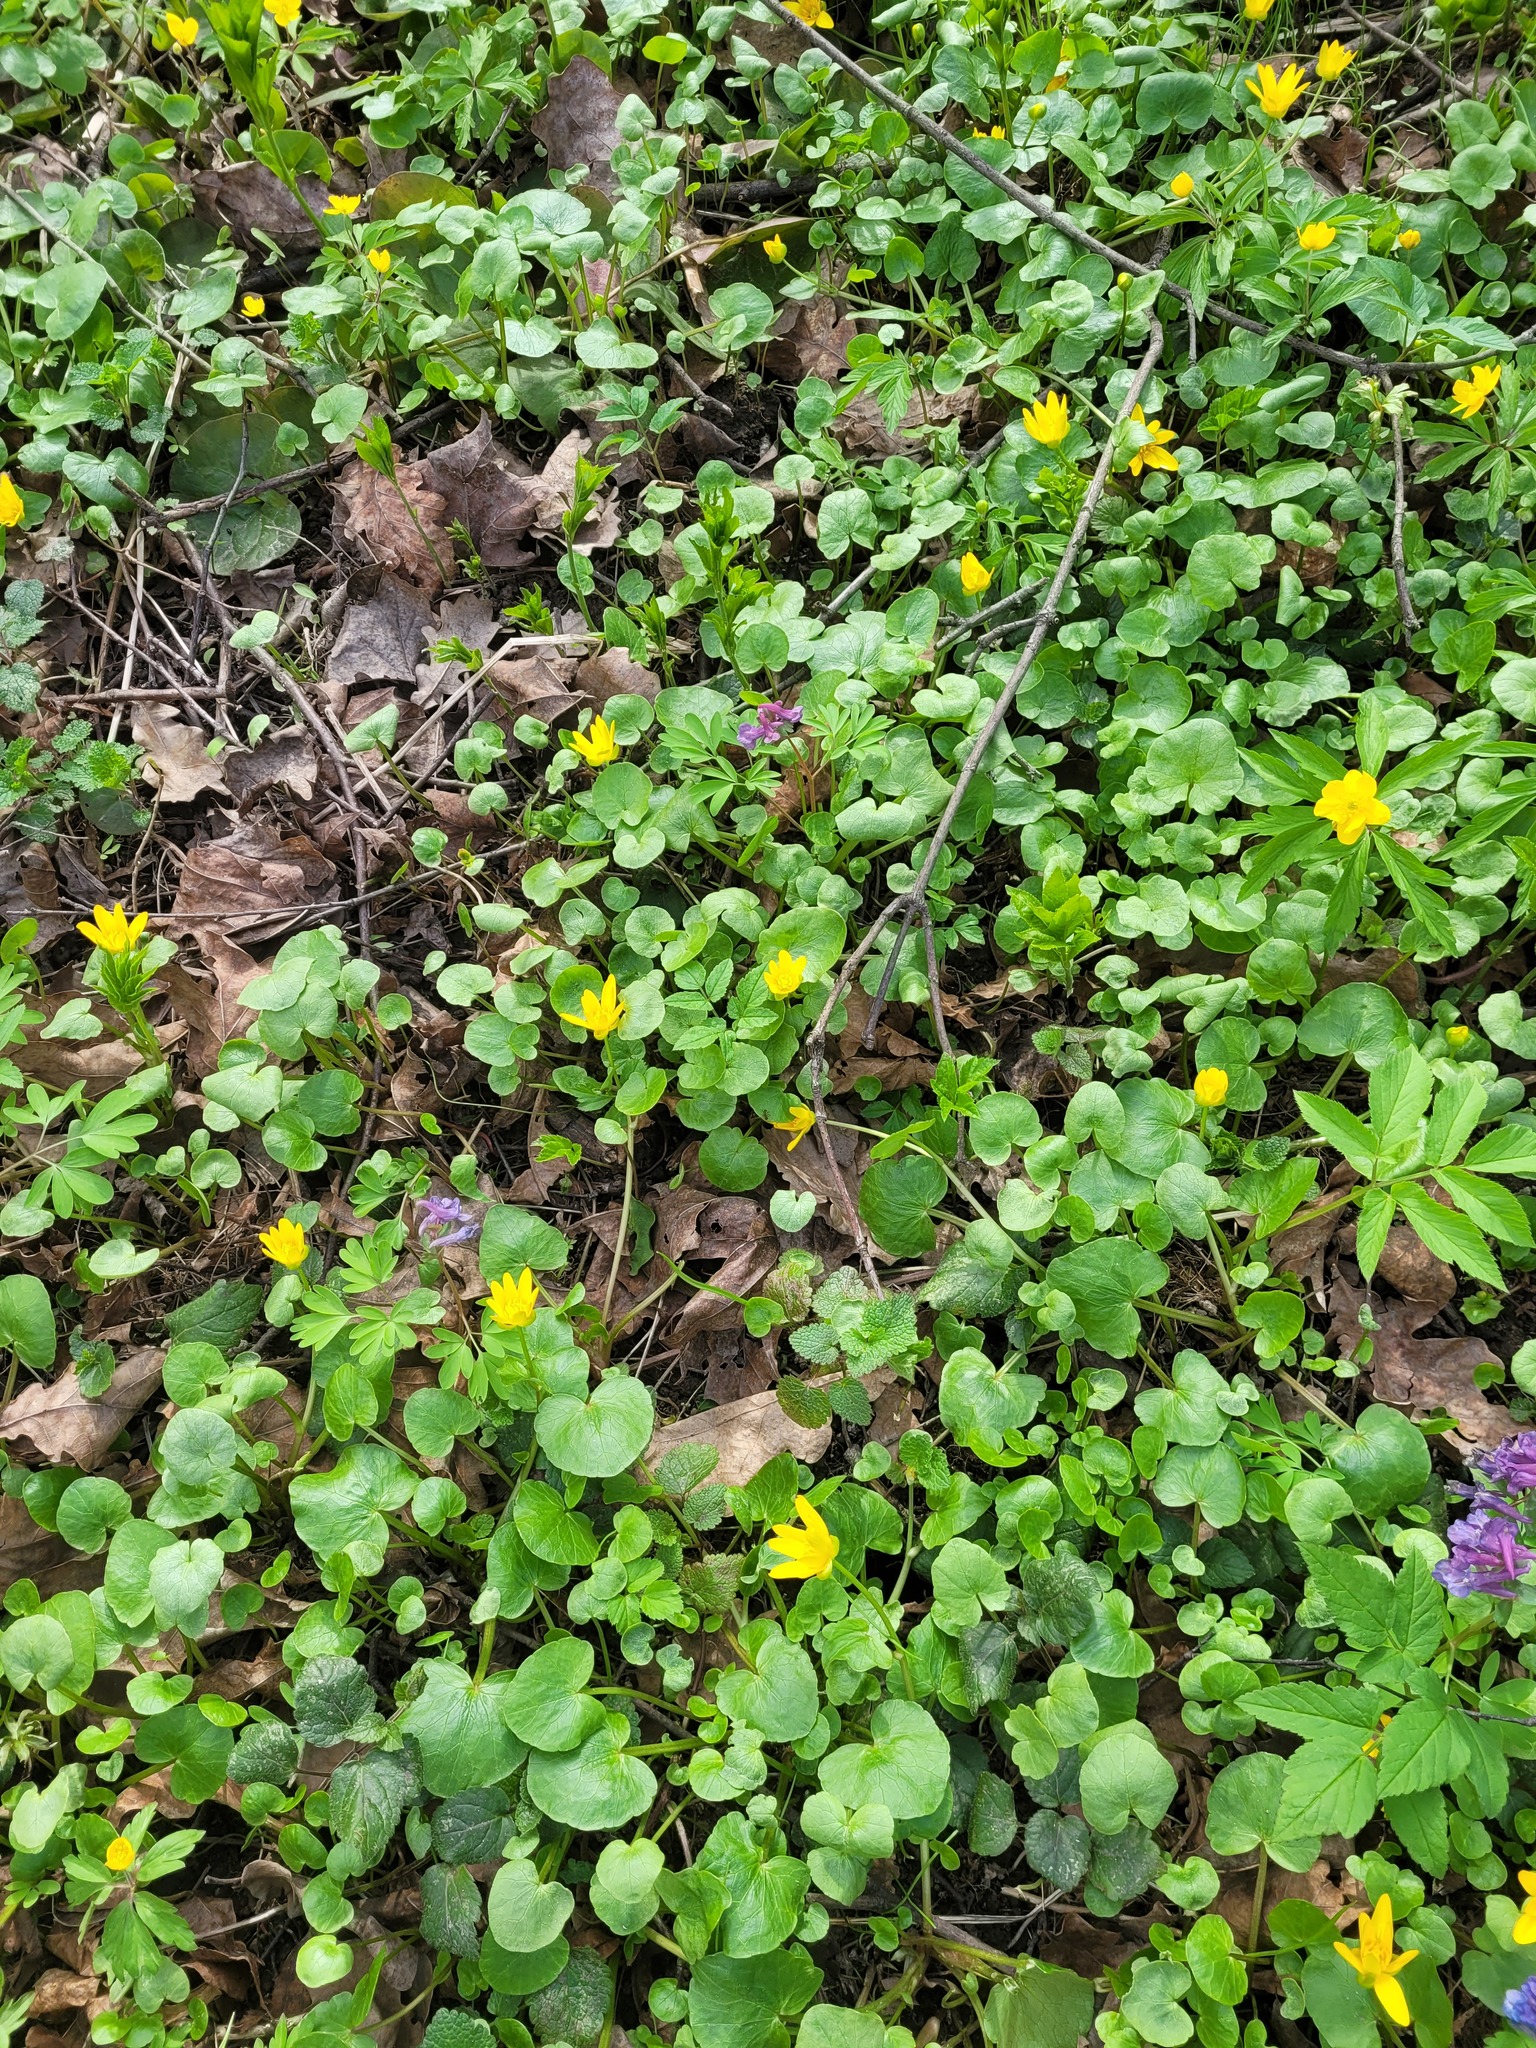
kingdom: Plantae
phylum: Tracheophyta
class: Magnoliopsida
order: Ranunculales
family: Ranunculaceae
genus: Ficaria
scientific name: Ficaria verna
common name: Lesser celandine
